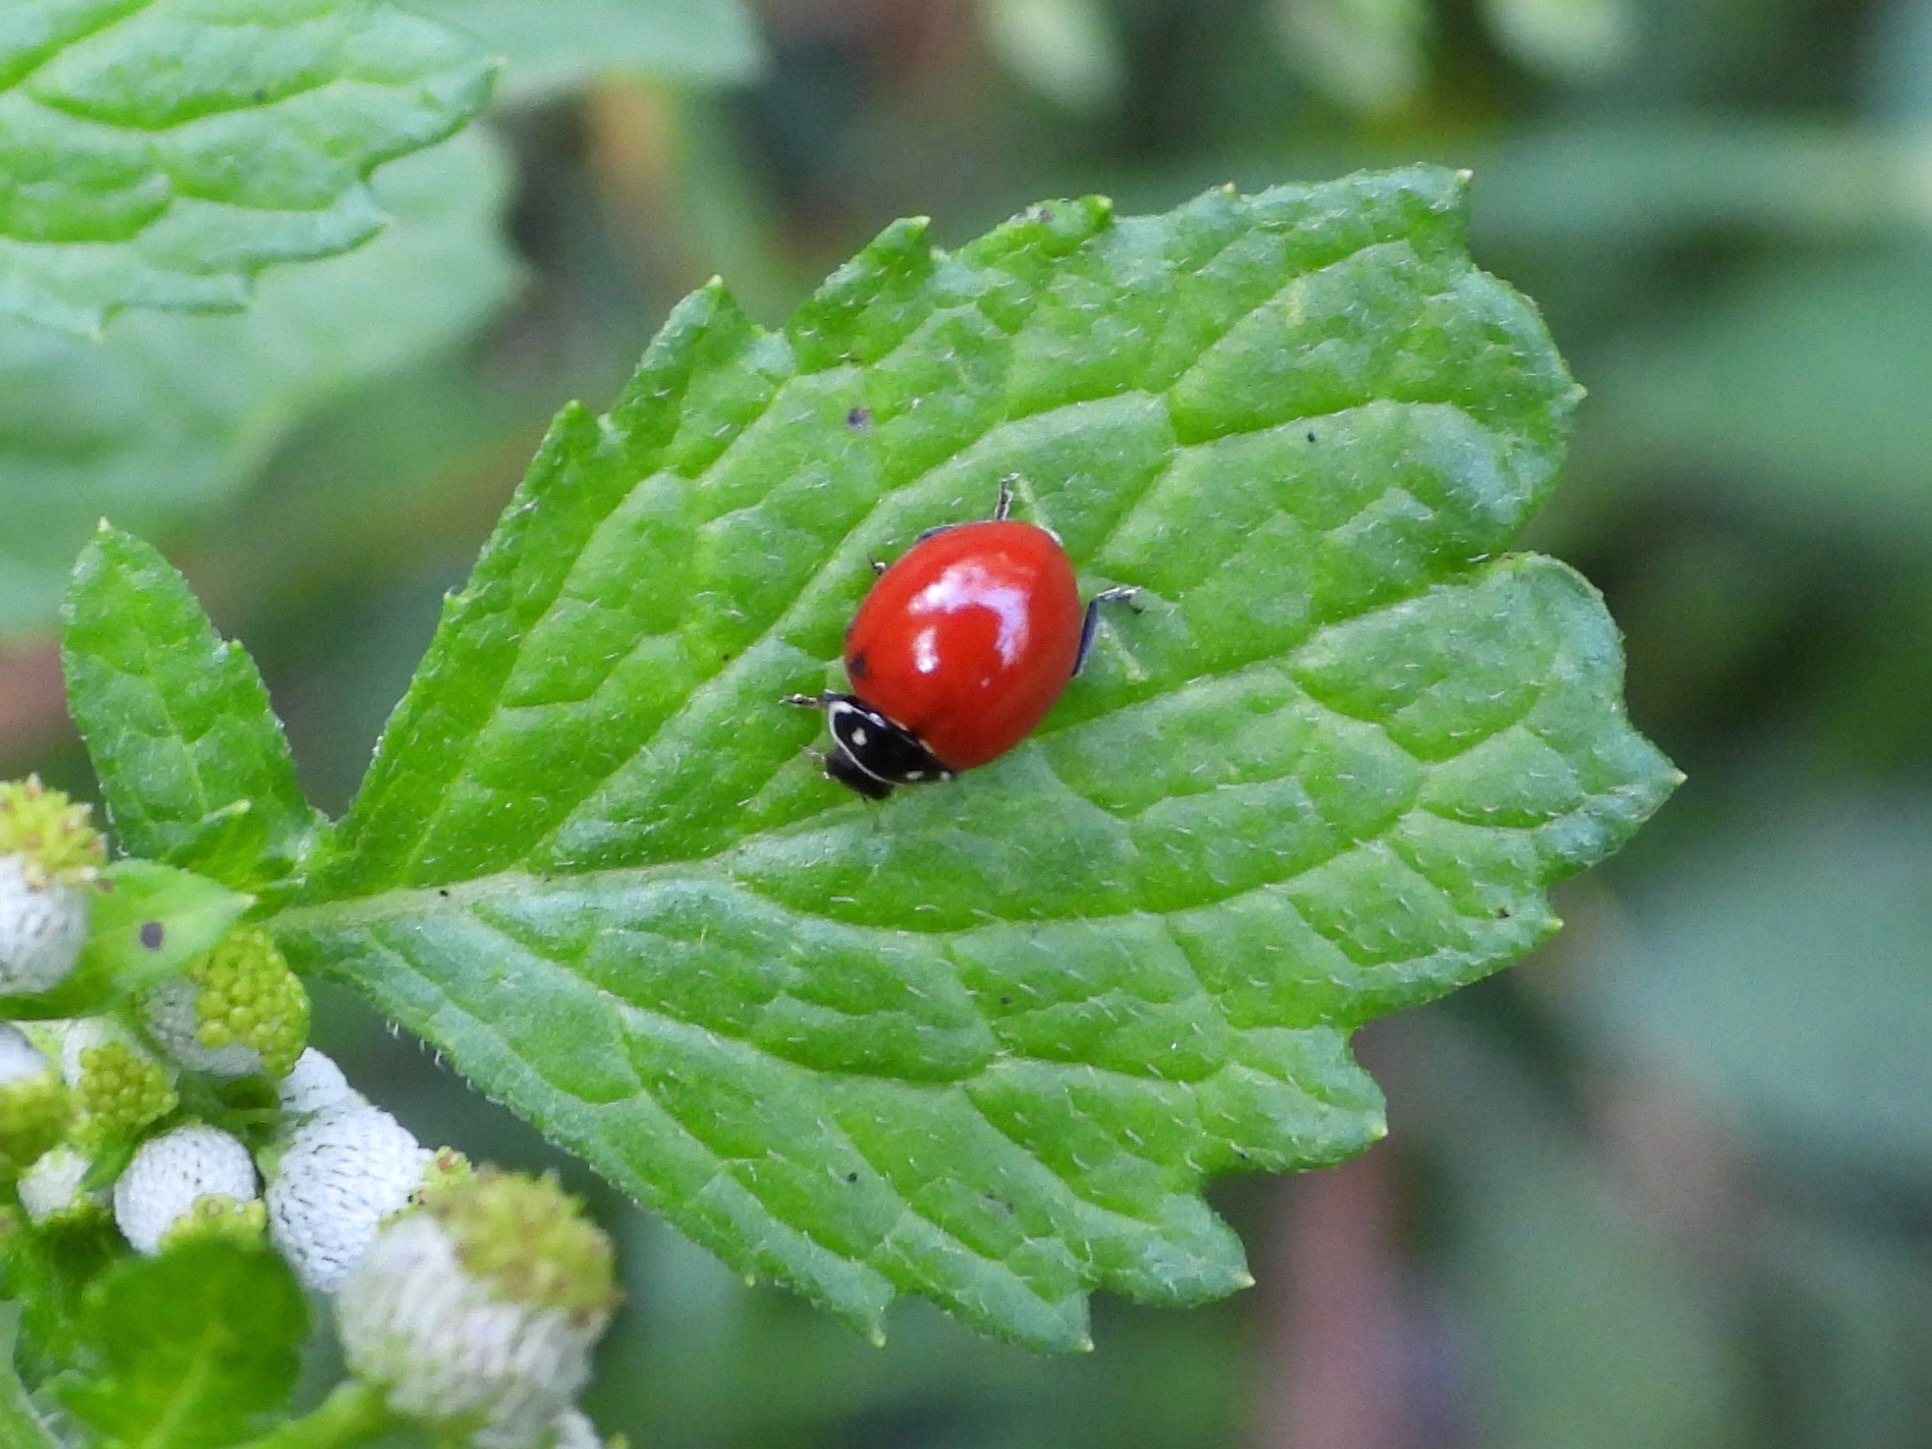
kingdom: Animalia
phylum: Arthropoda
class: Insecta
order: Coleoptera
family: Coccinellidae
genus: Cycloneda
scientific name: Cycloneda emarginata
